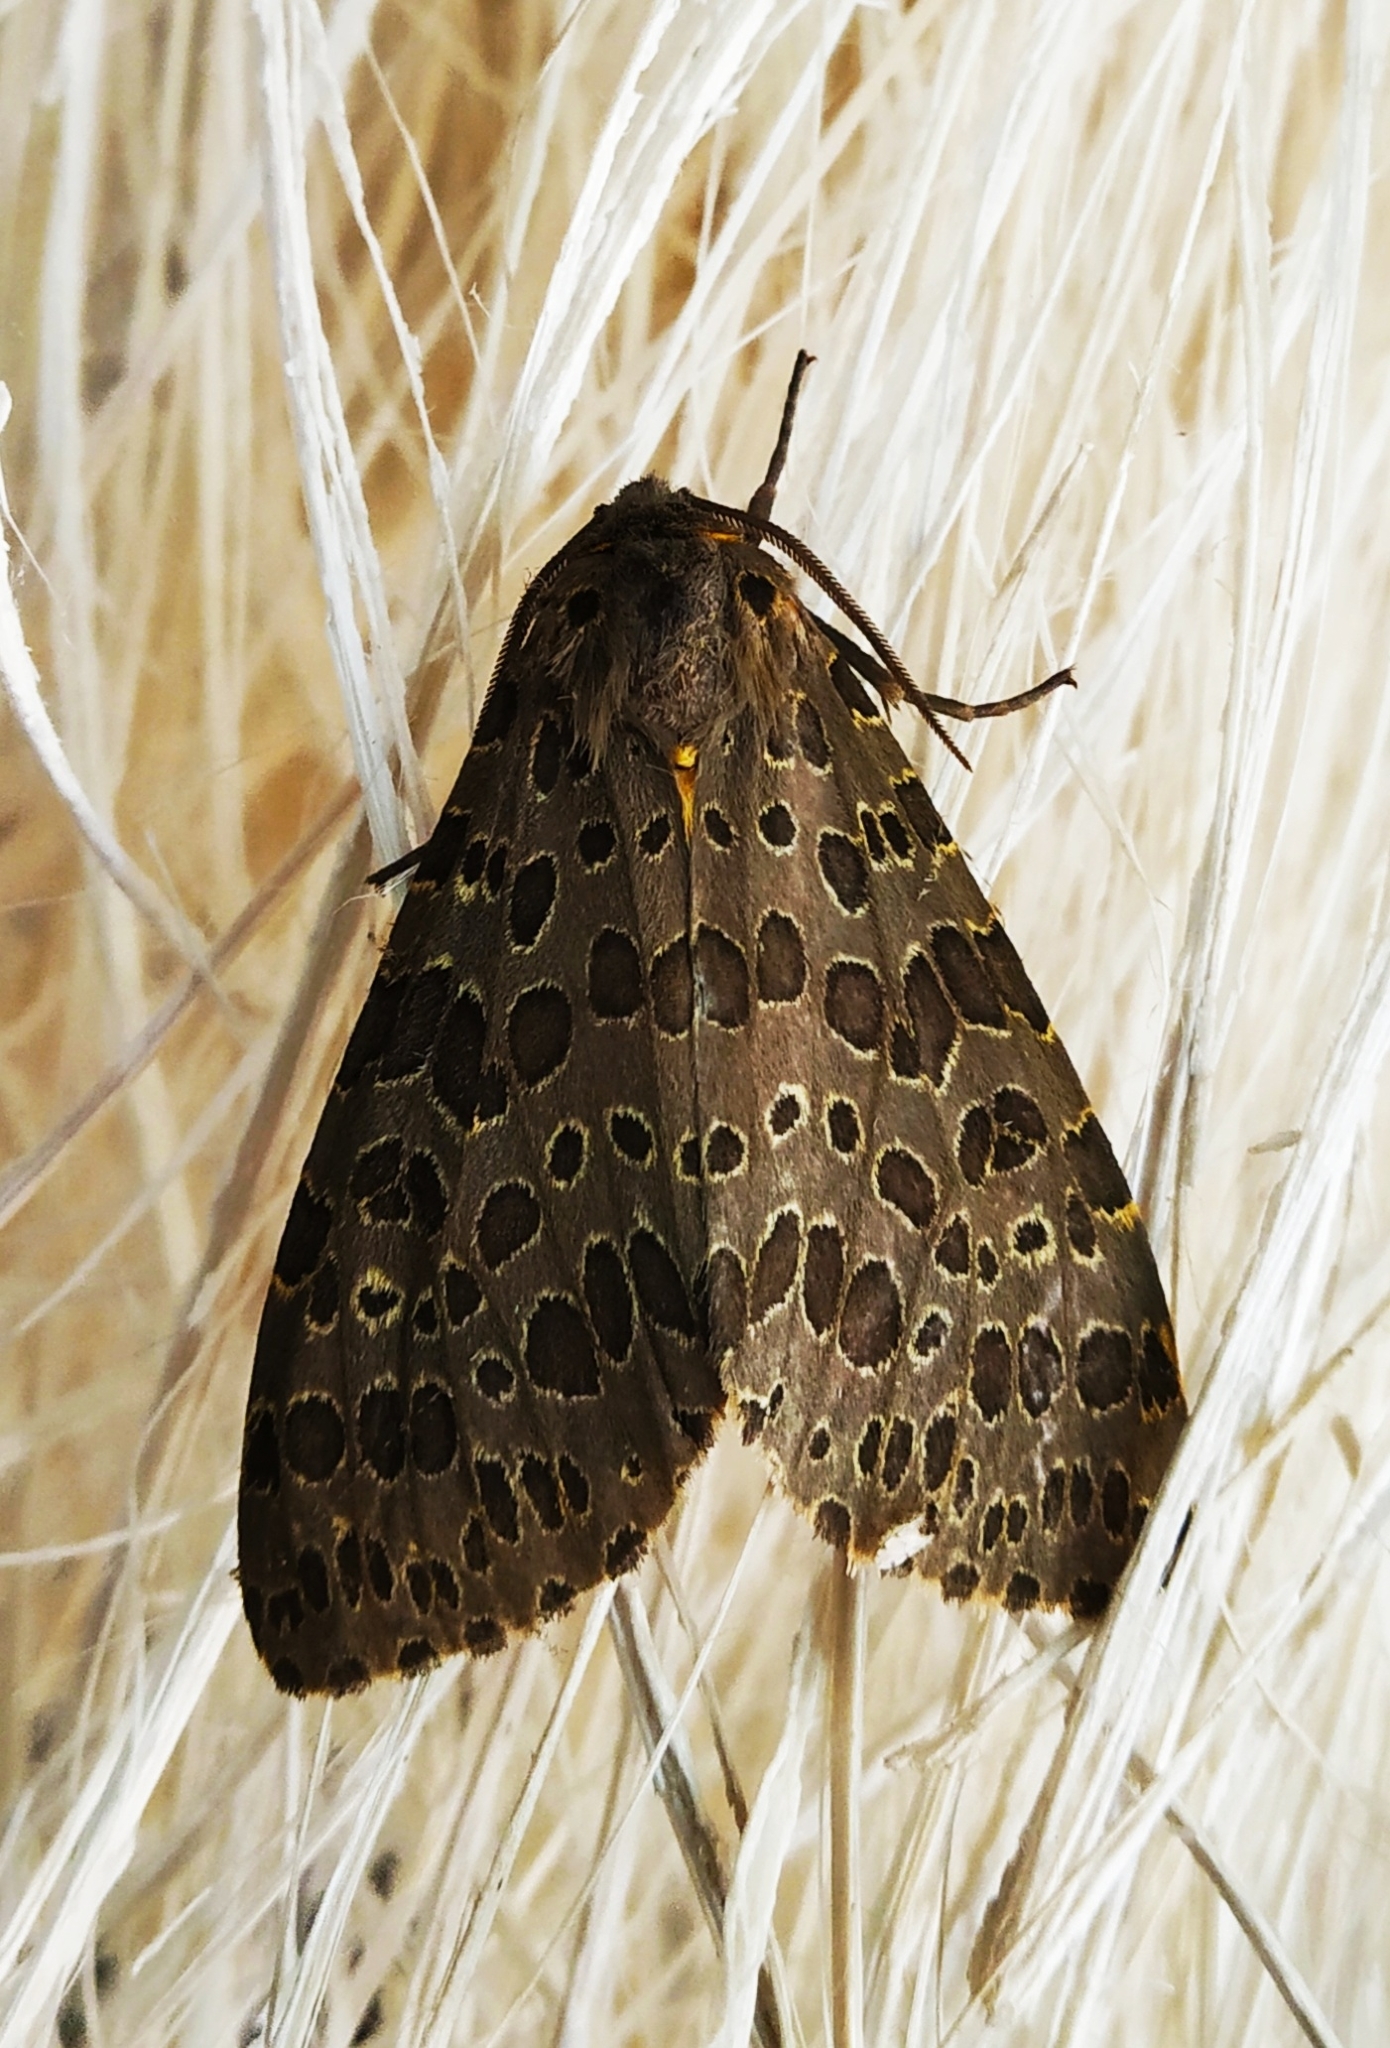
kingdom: Animalia
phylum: Arthropoda
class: Insecta
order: Lepidoptera
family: Erebidae
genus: Olepa
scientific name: Olepa ricini
